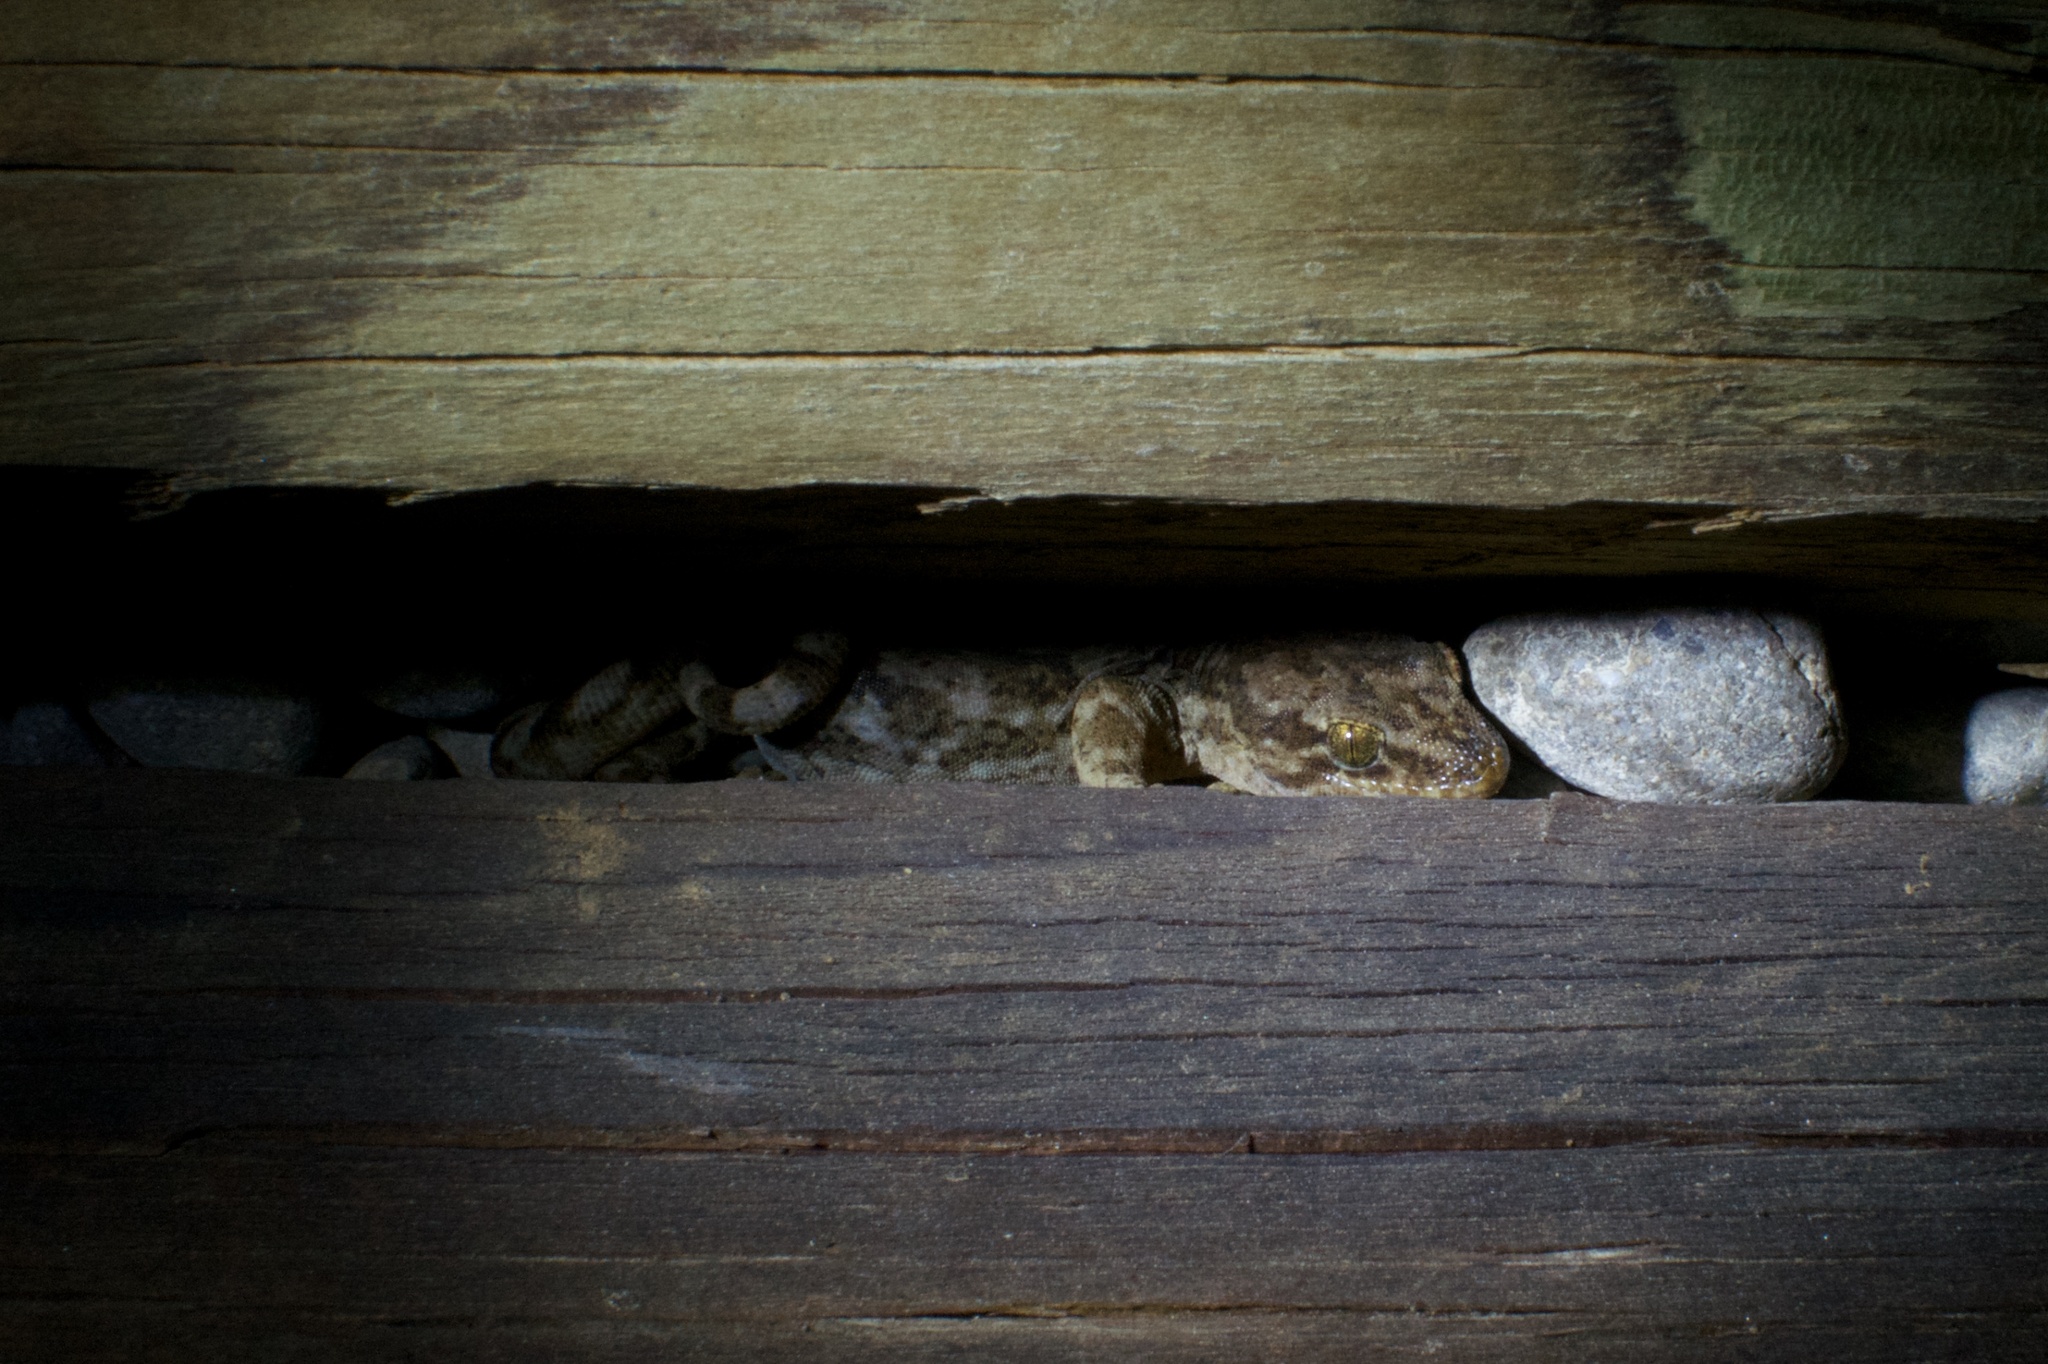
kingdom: Animalia
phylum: Chordata
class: Squamata
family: Diplodactylidae
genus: Woodworthia
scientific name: Woodworthia brunnea
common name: Canterbury gecko
